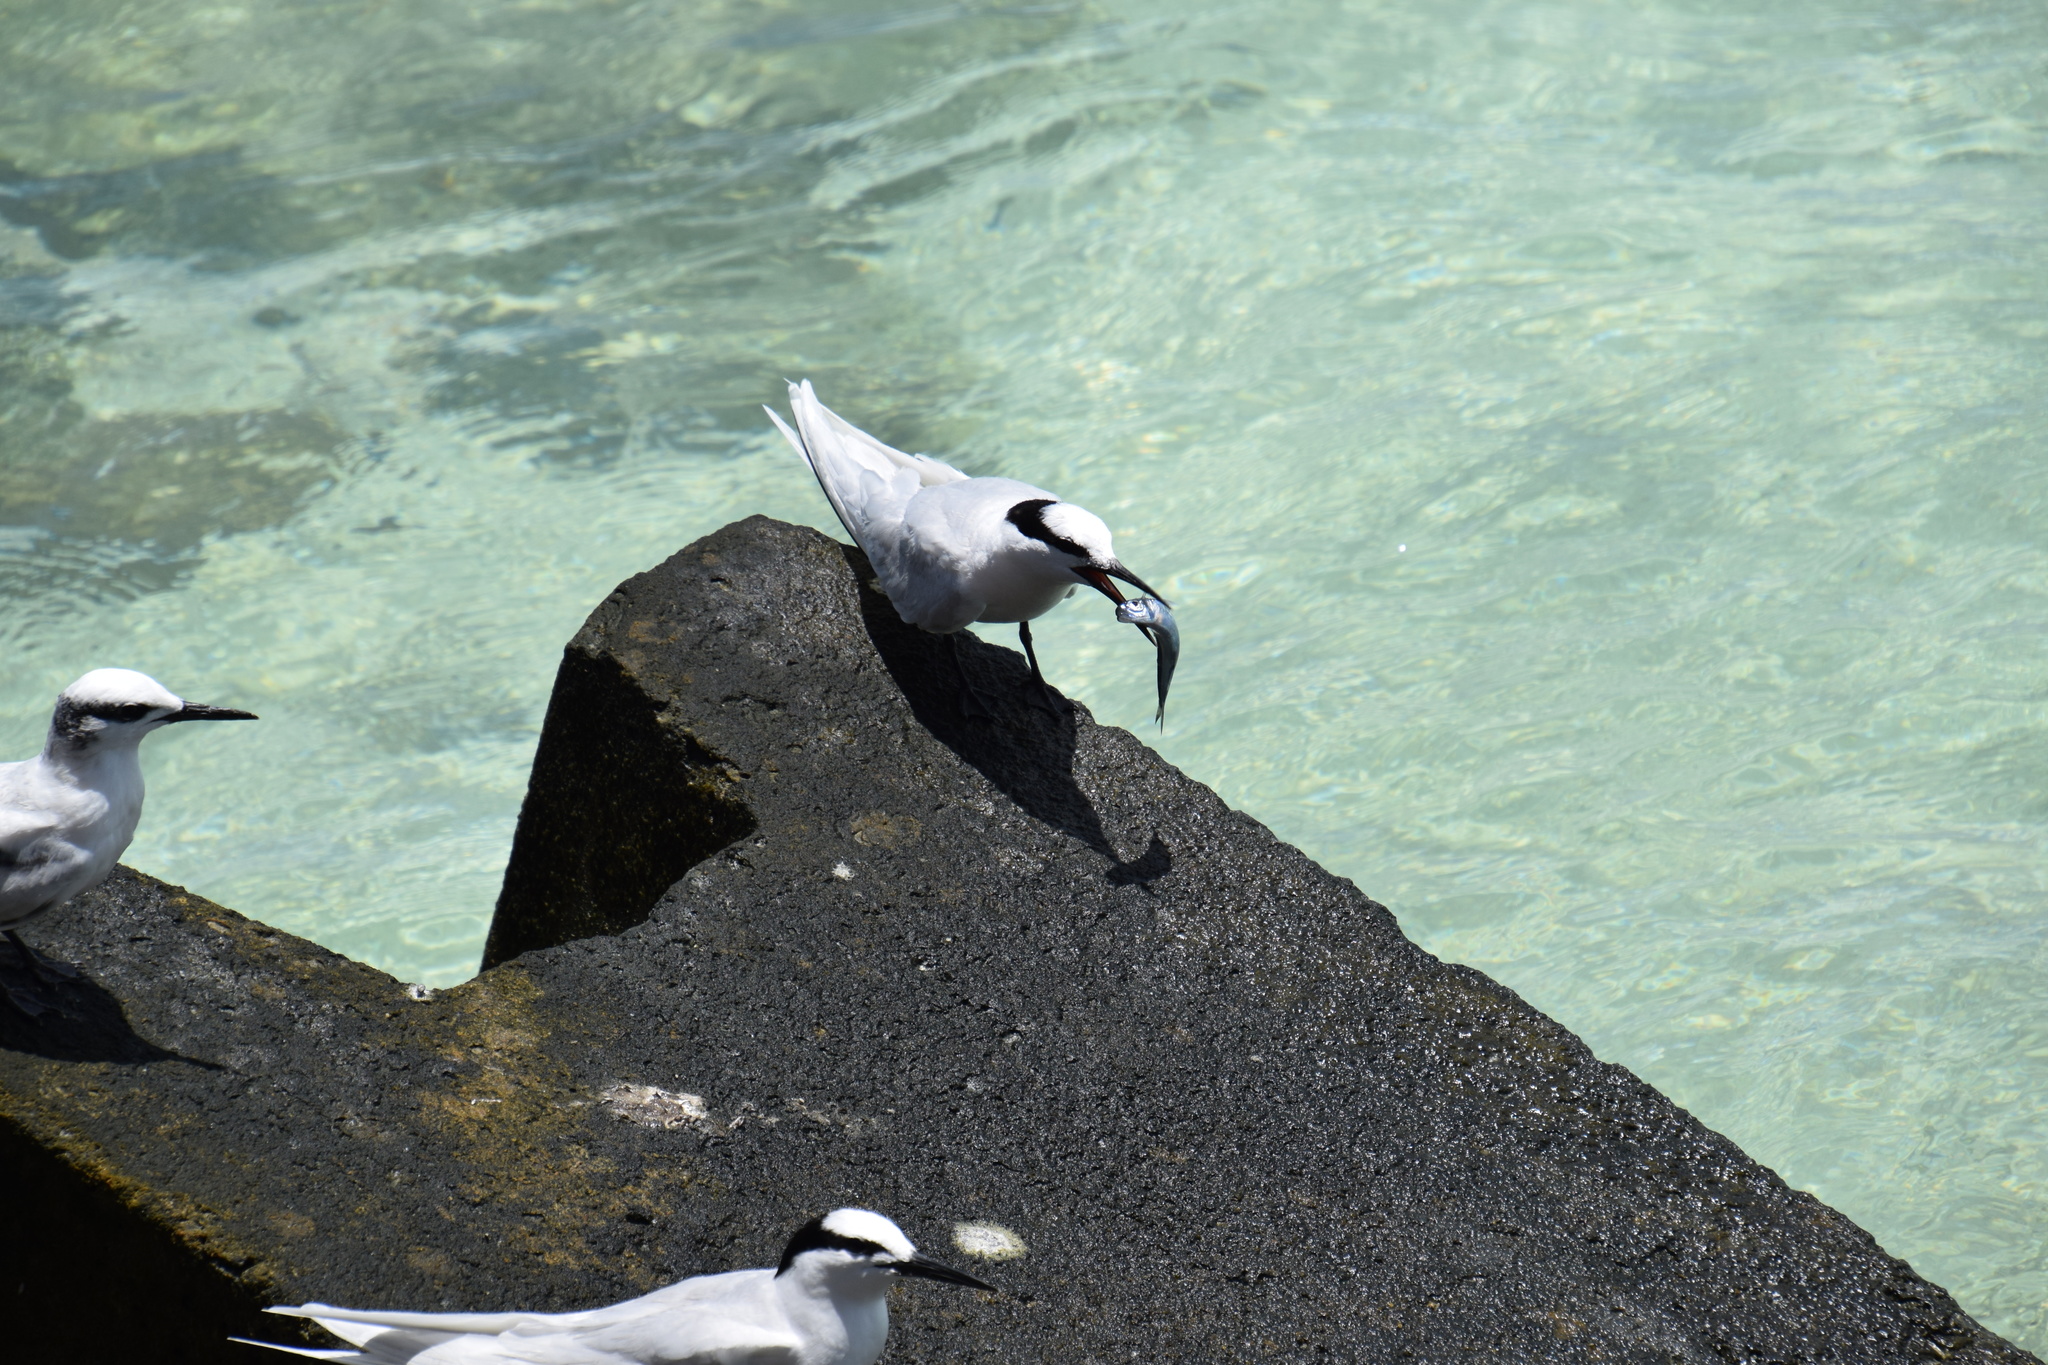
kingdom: Animalia
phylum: Chordata
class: Aves
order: Charadriiformes
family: Laridae
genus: Sterna
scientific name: Sterna sumatrana
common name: Black-naped tern
